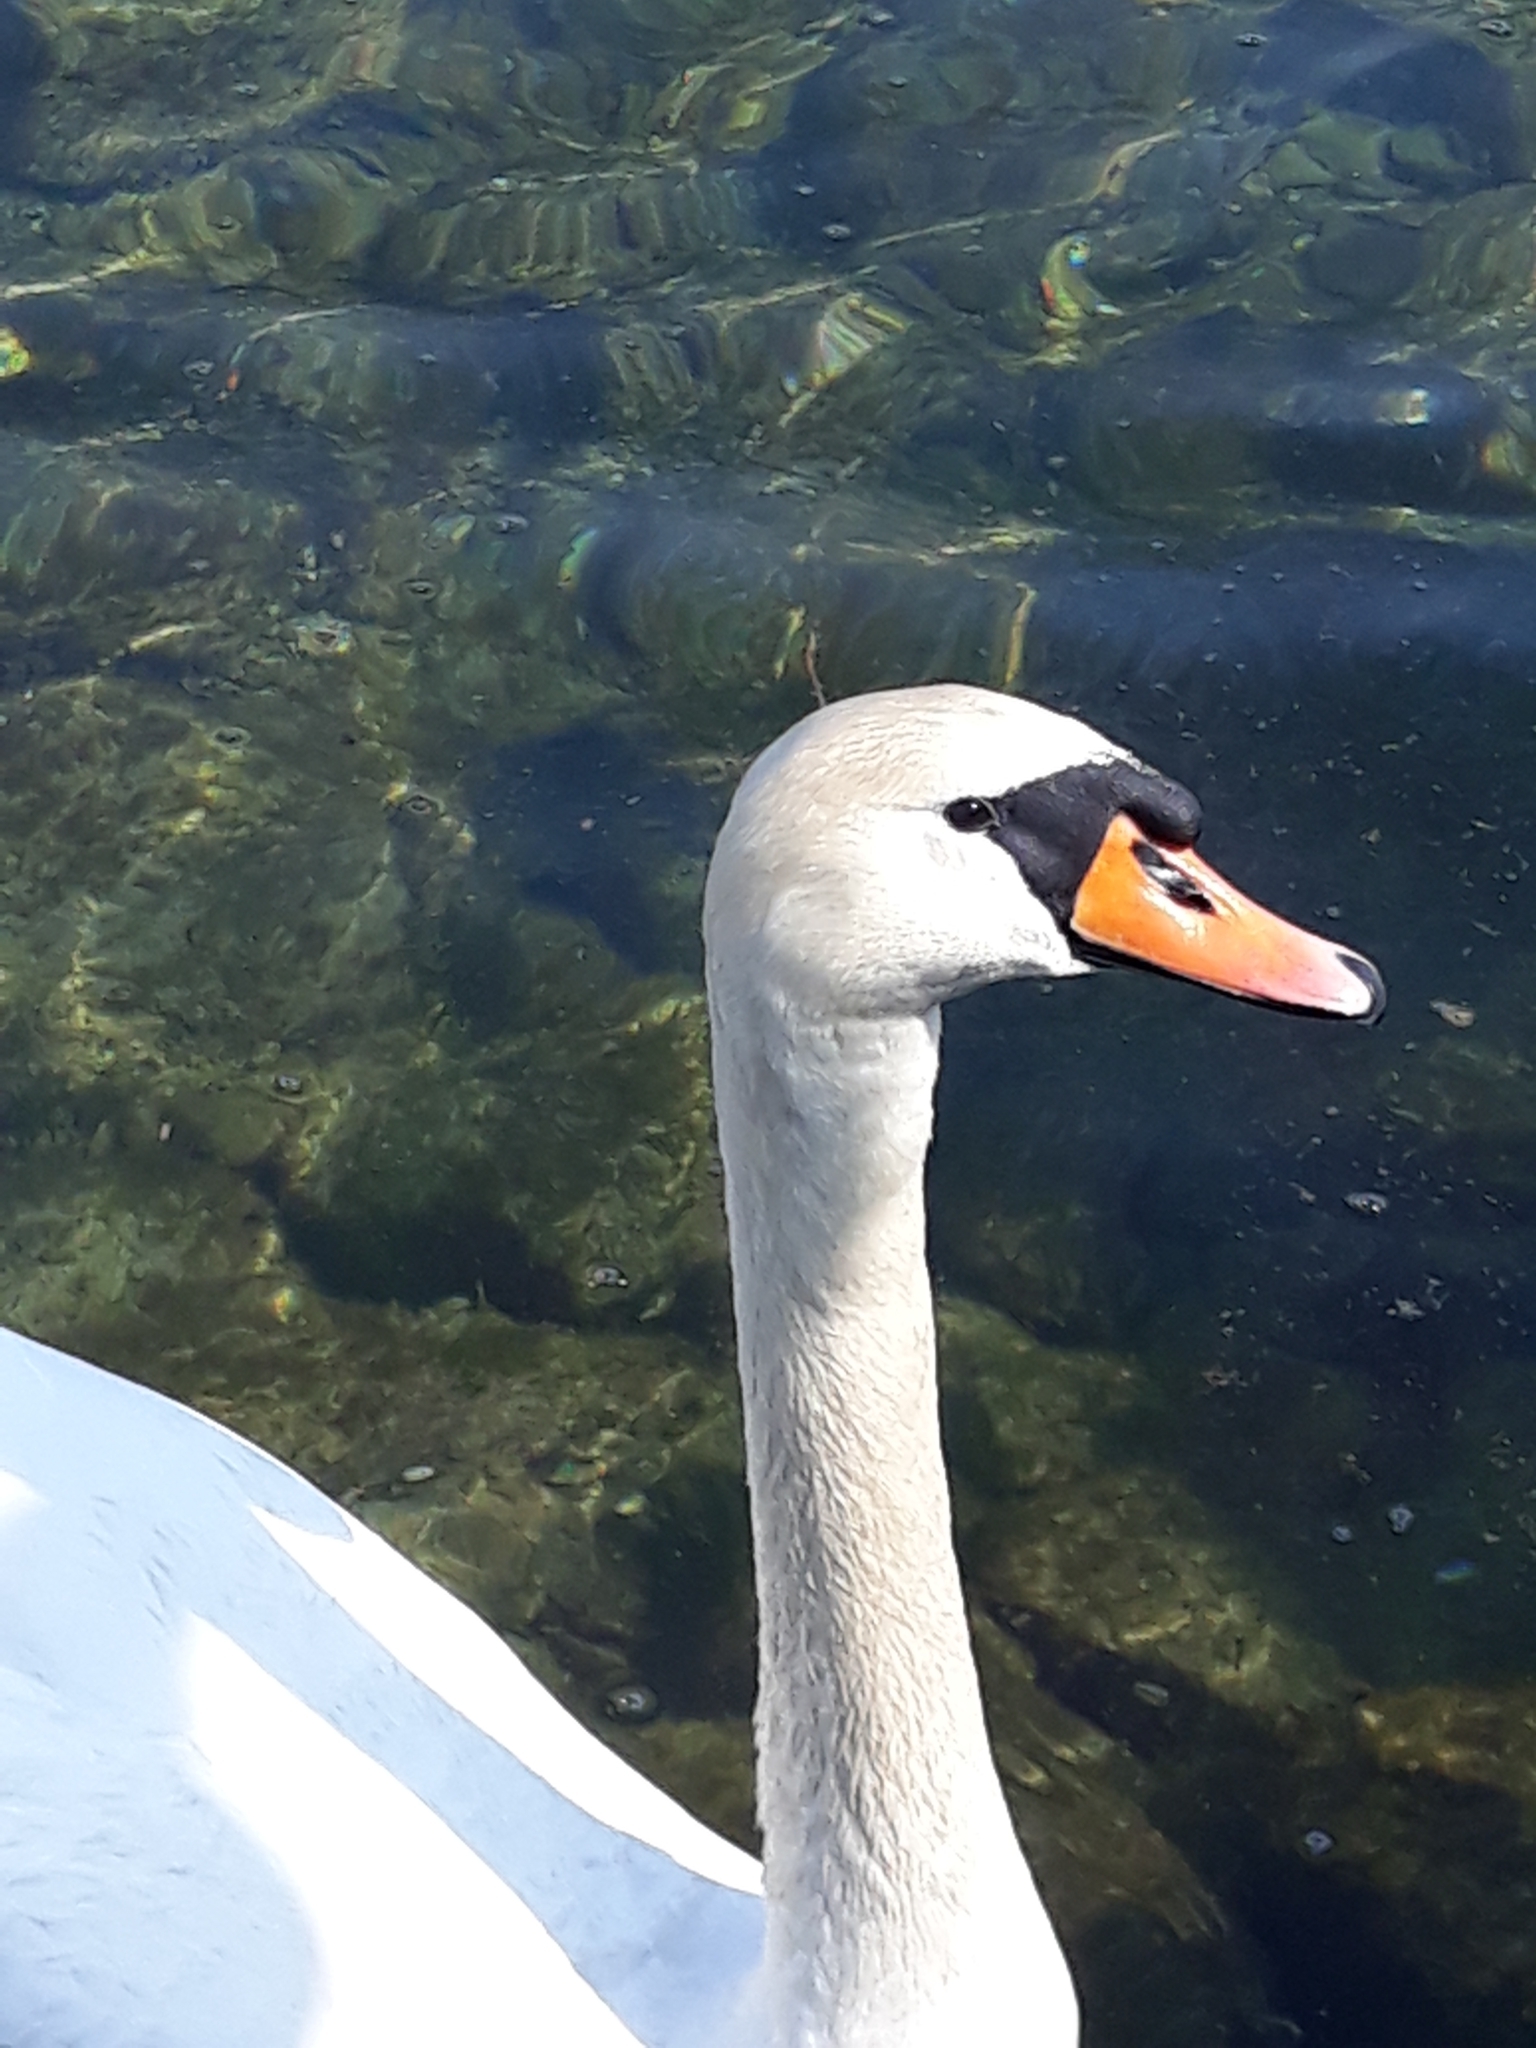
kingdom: Animalia
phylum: Chordata
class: Aves
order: Anseriformes
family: Anatidae
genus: Cygnus
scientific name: Cygnus olor
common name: Mute swan
